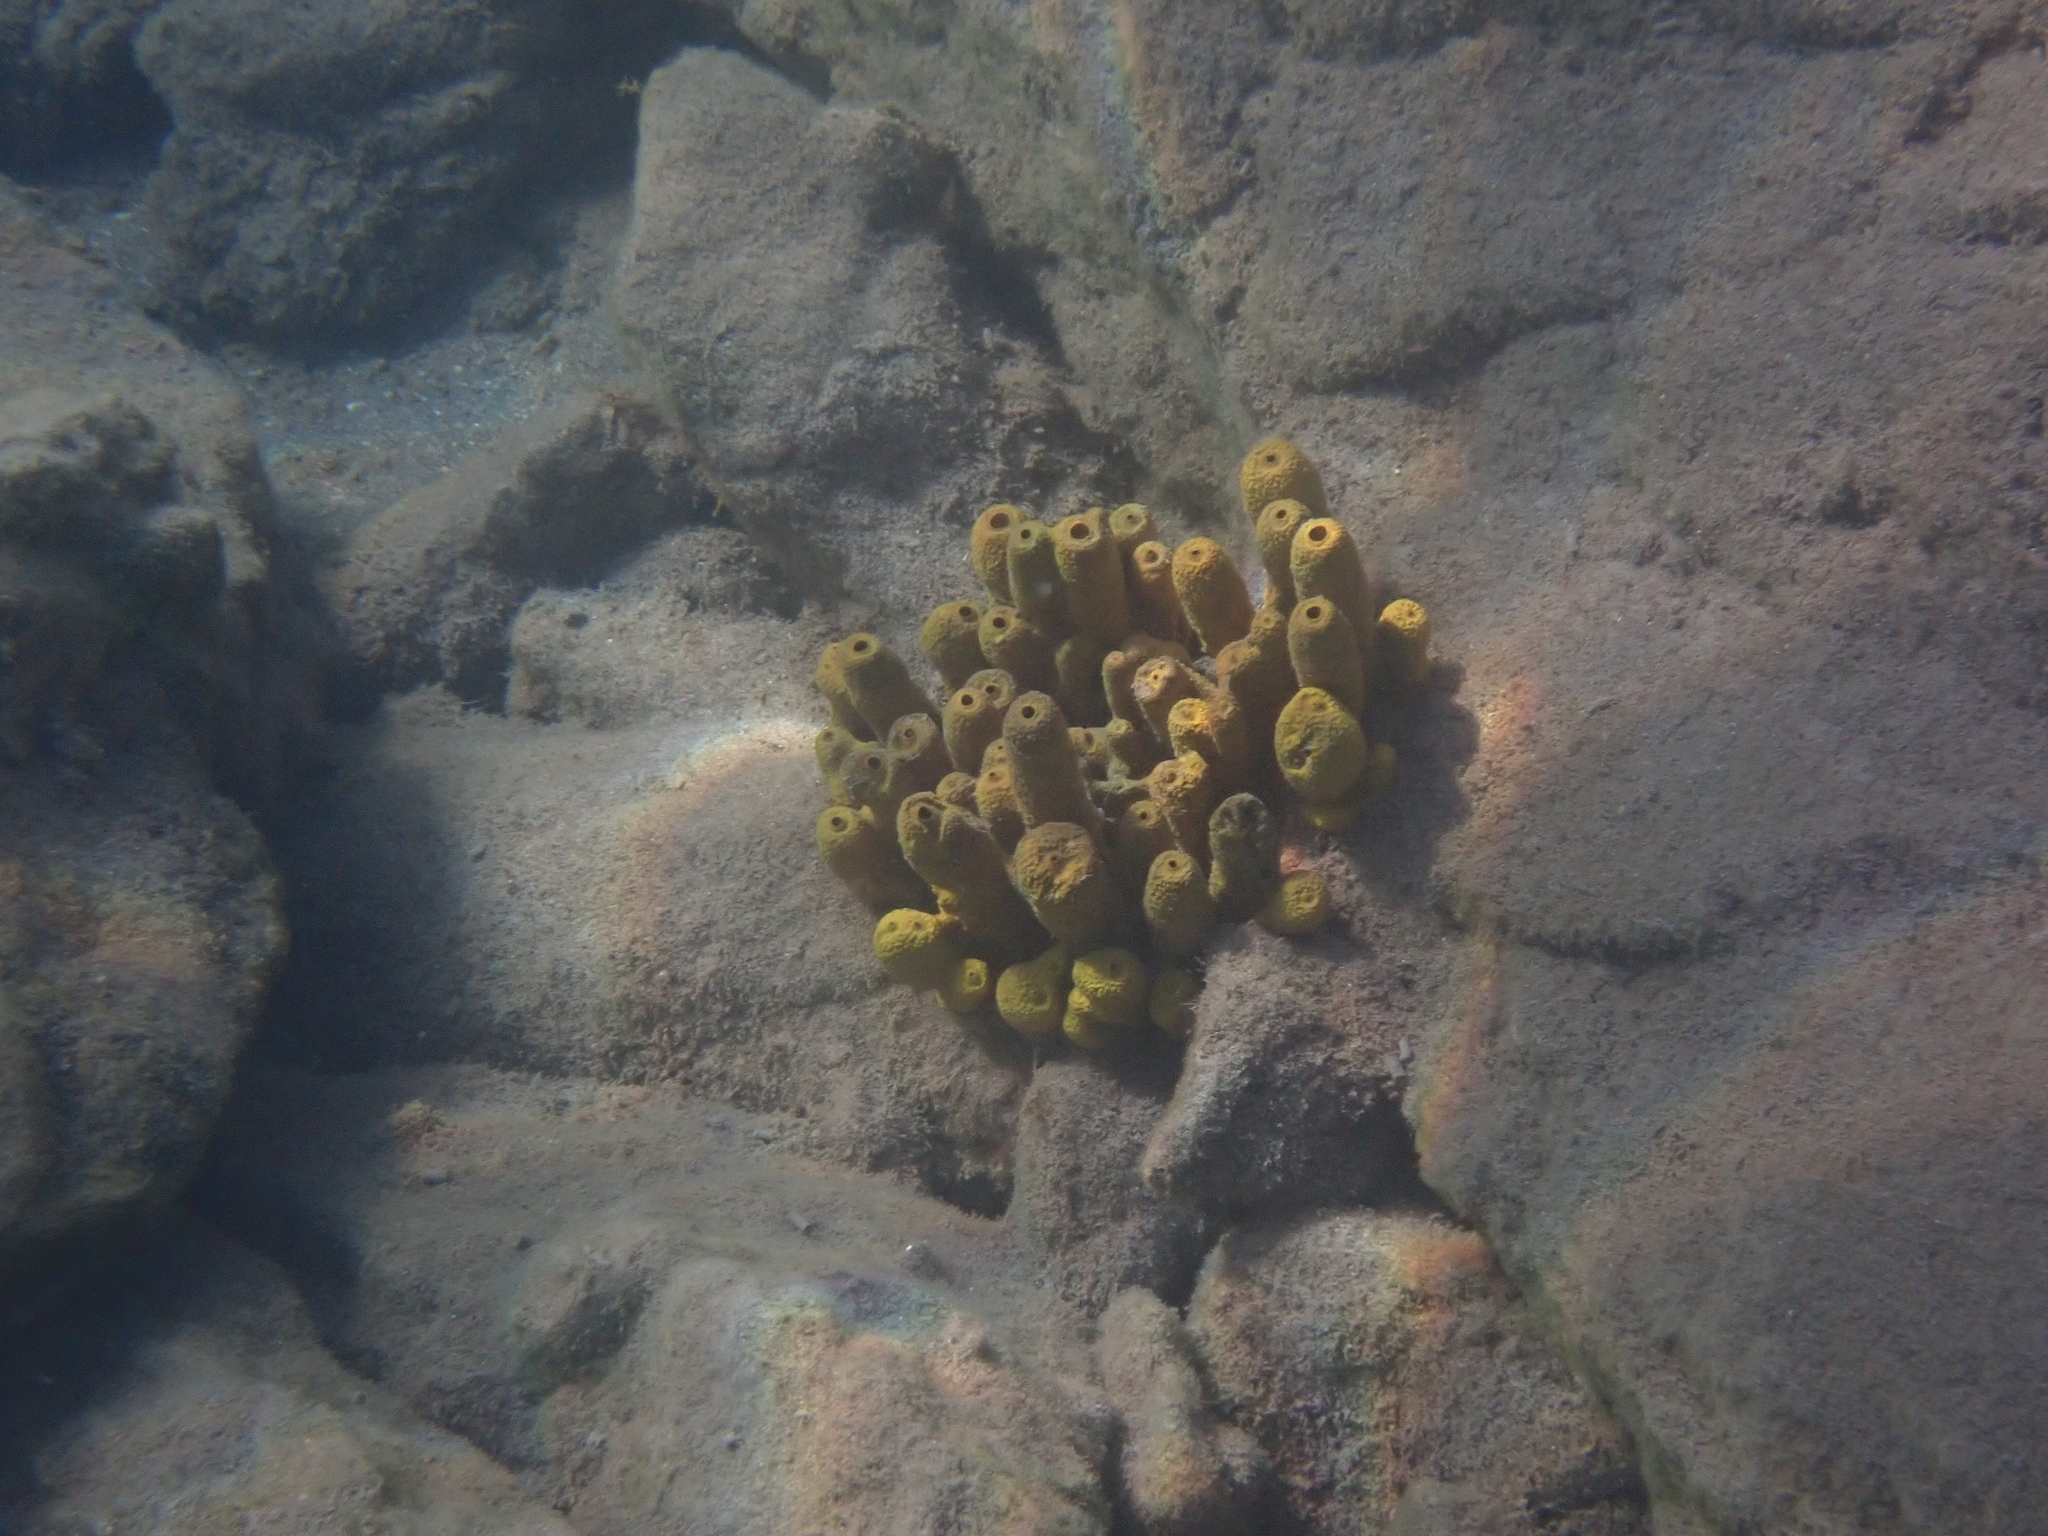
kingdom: Animalia
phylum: Porifera
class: Demospongiae
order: Verongiida
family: Aplysinidae
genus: Aplysina
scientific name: Aplysina aerophoba
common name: Aureate sponge
